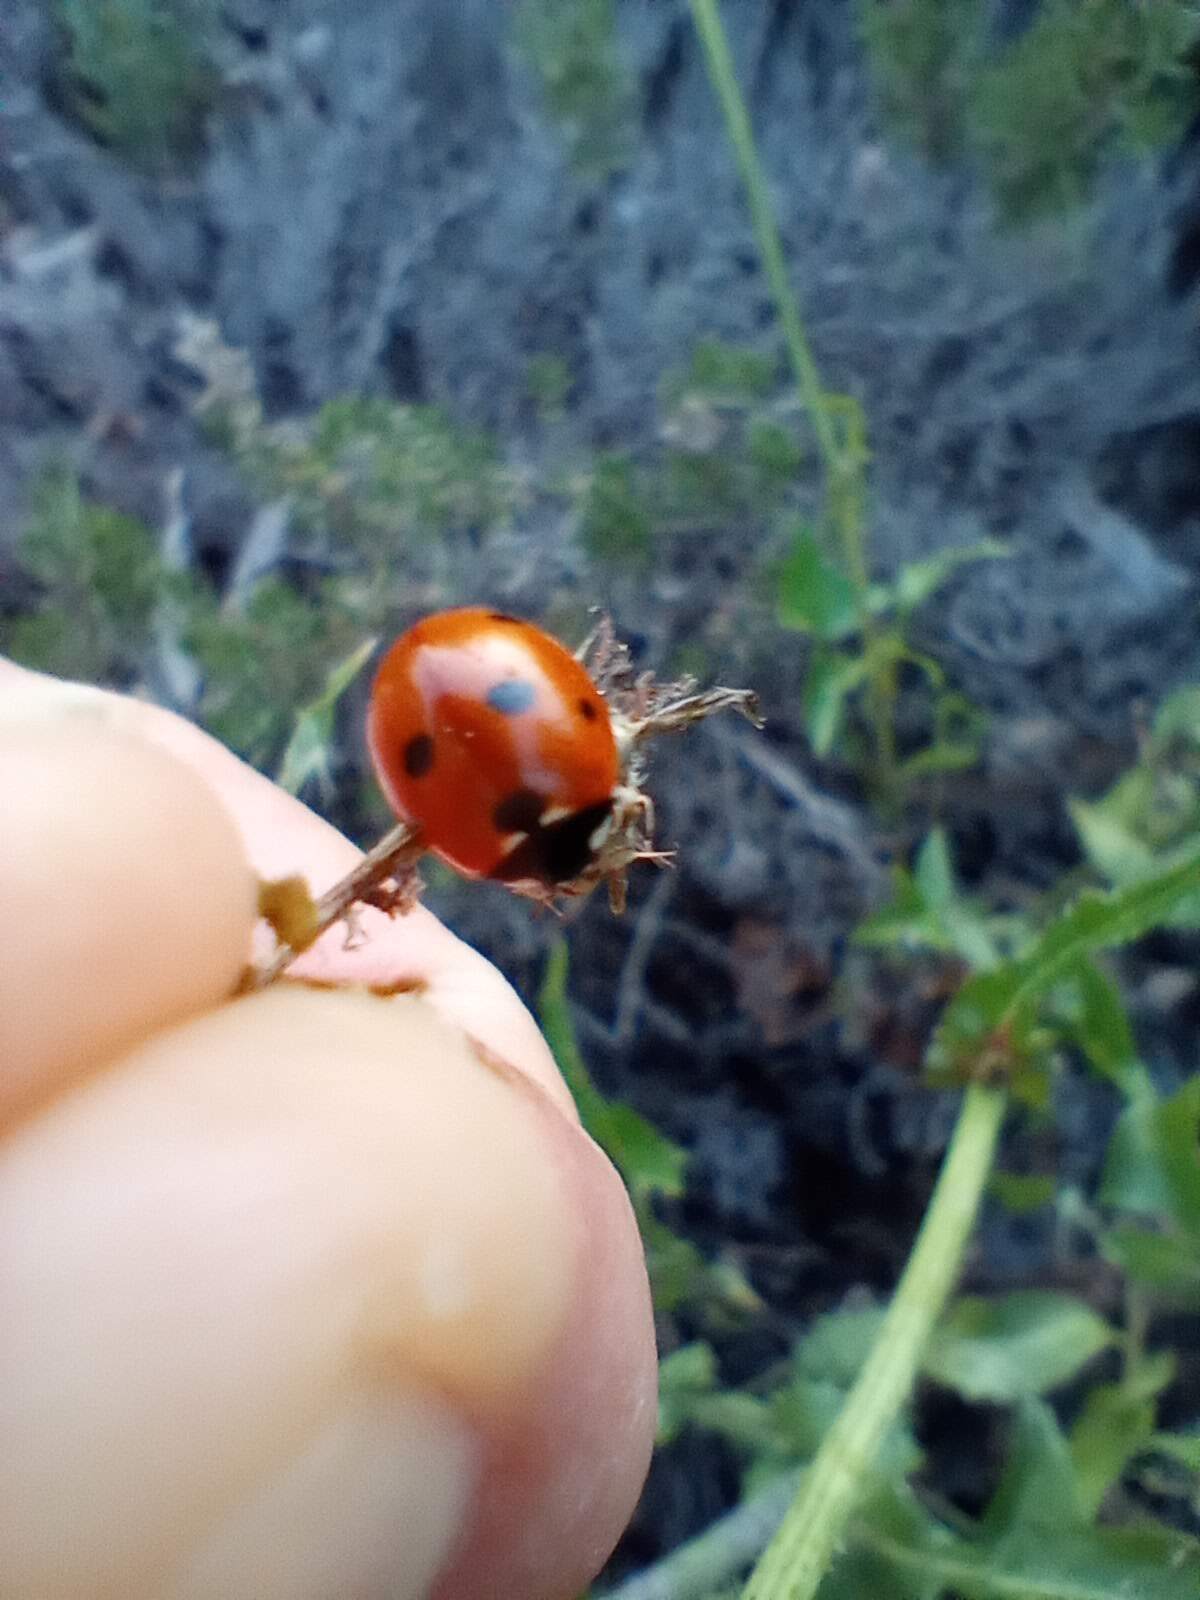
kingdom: Animalia
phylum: Arthropoda
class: Insecta
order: Coleoptera
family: Coccinellidae
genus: Coccinella
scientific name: Coccinella septempunctata
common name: Sevenspotted lady beetle
